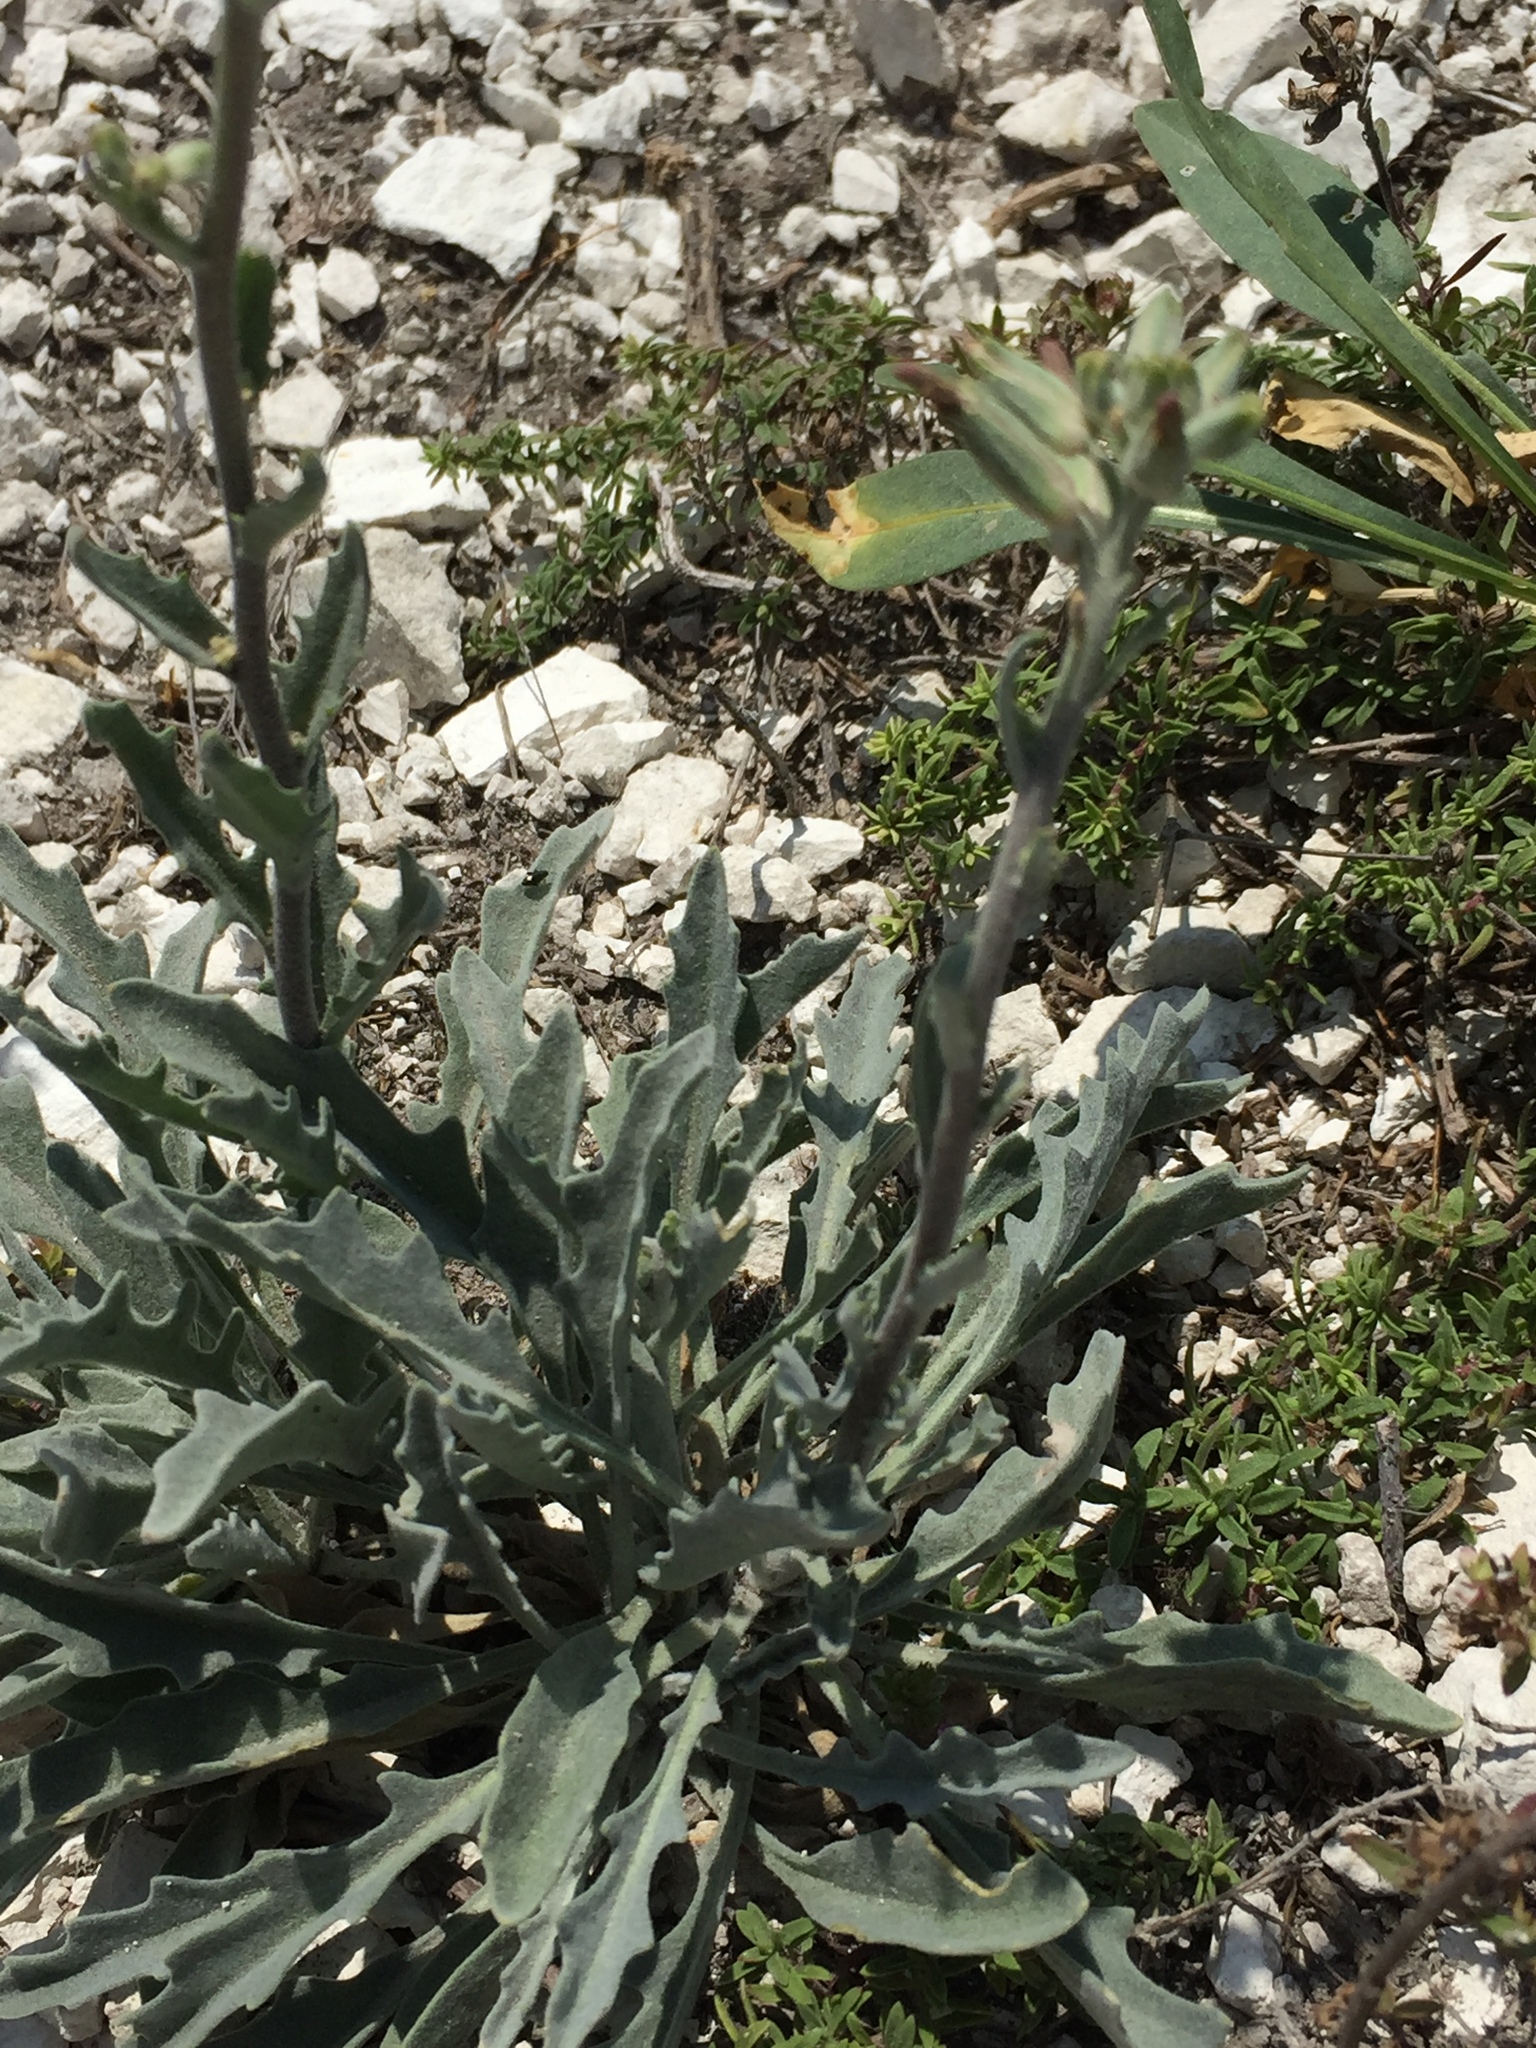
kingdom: Plantae
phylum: Tracheophyta
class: Magnoliopsida
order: Brassicales
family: Brassicaceae
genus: Matthiola
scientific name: Matthiola fragrans
